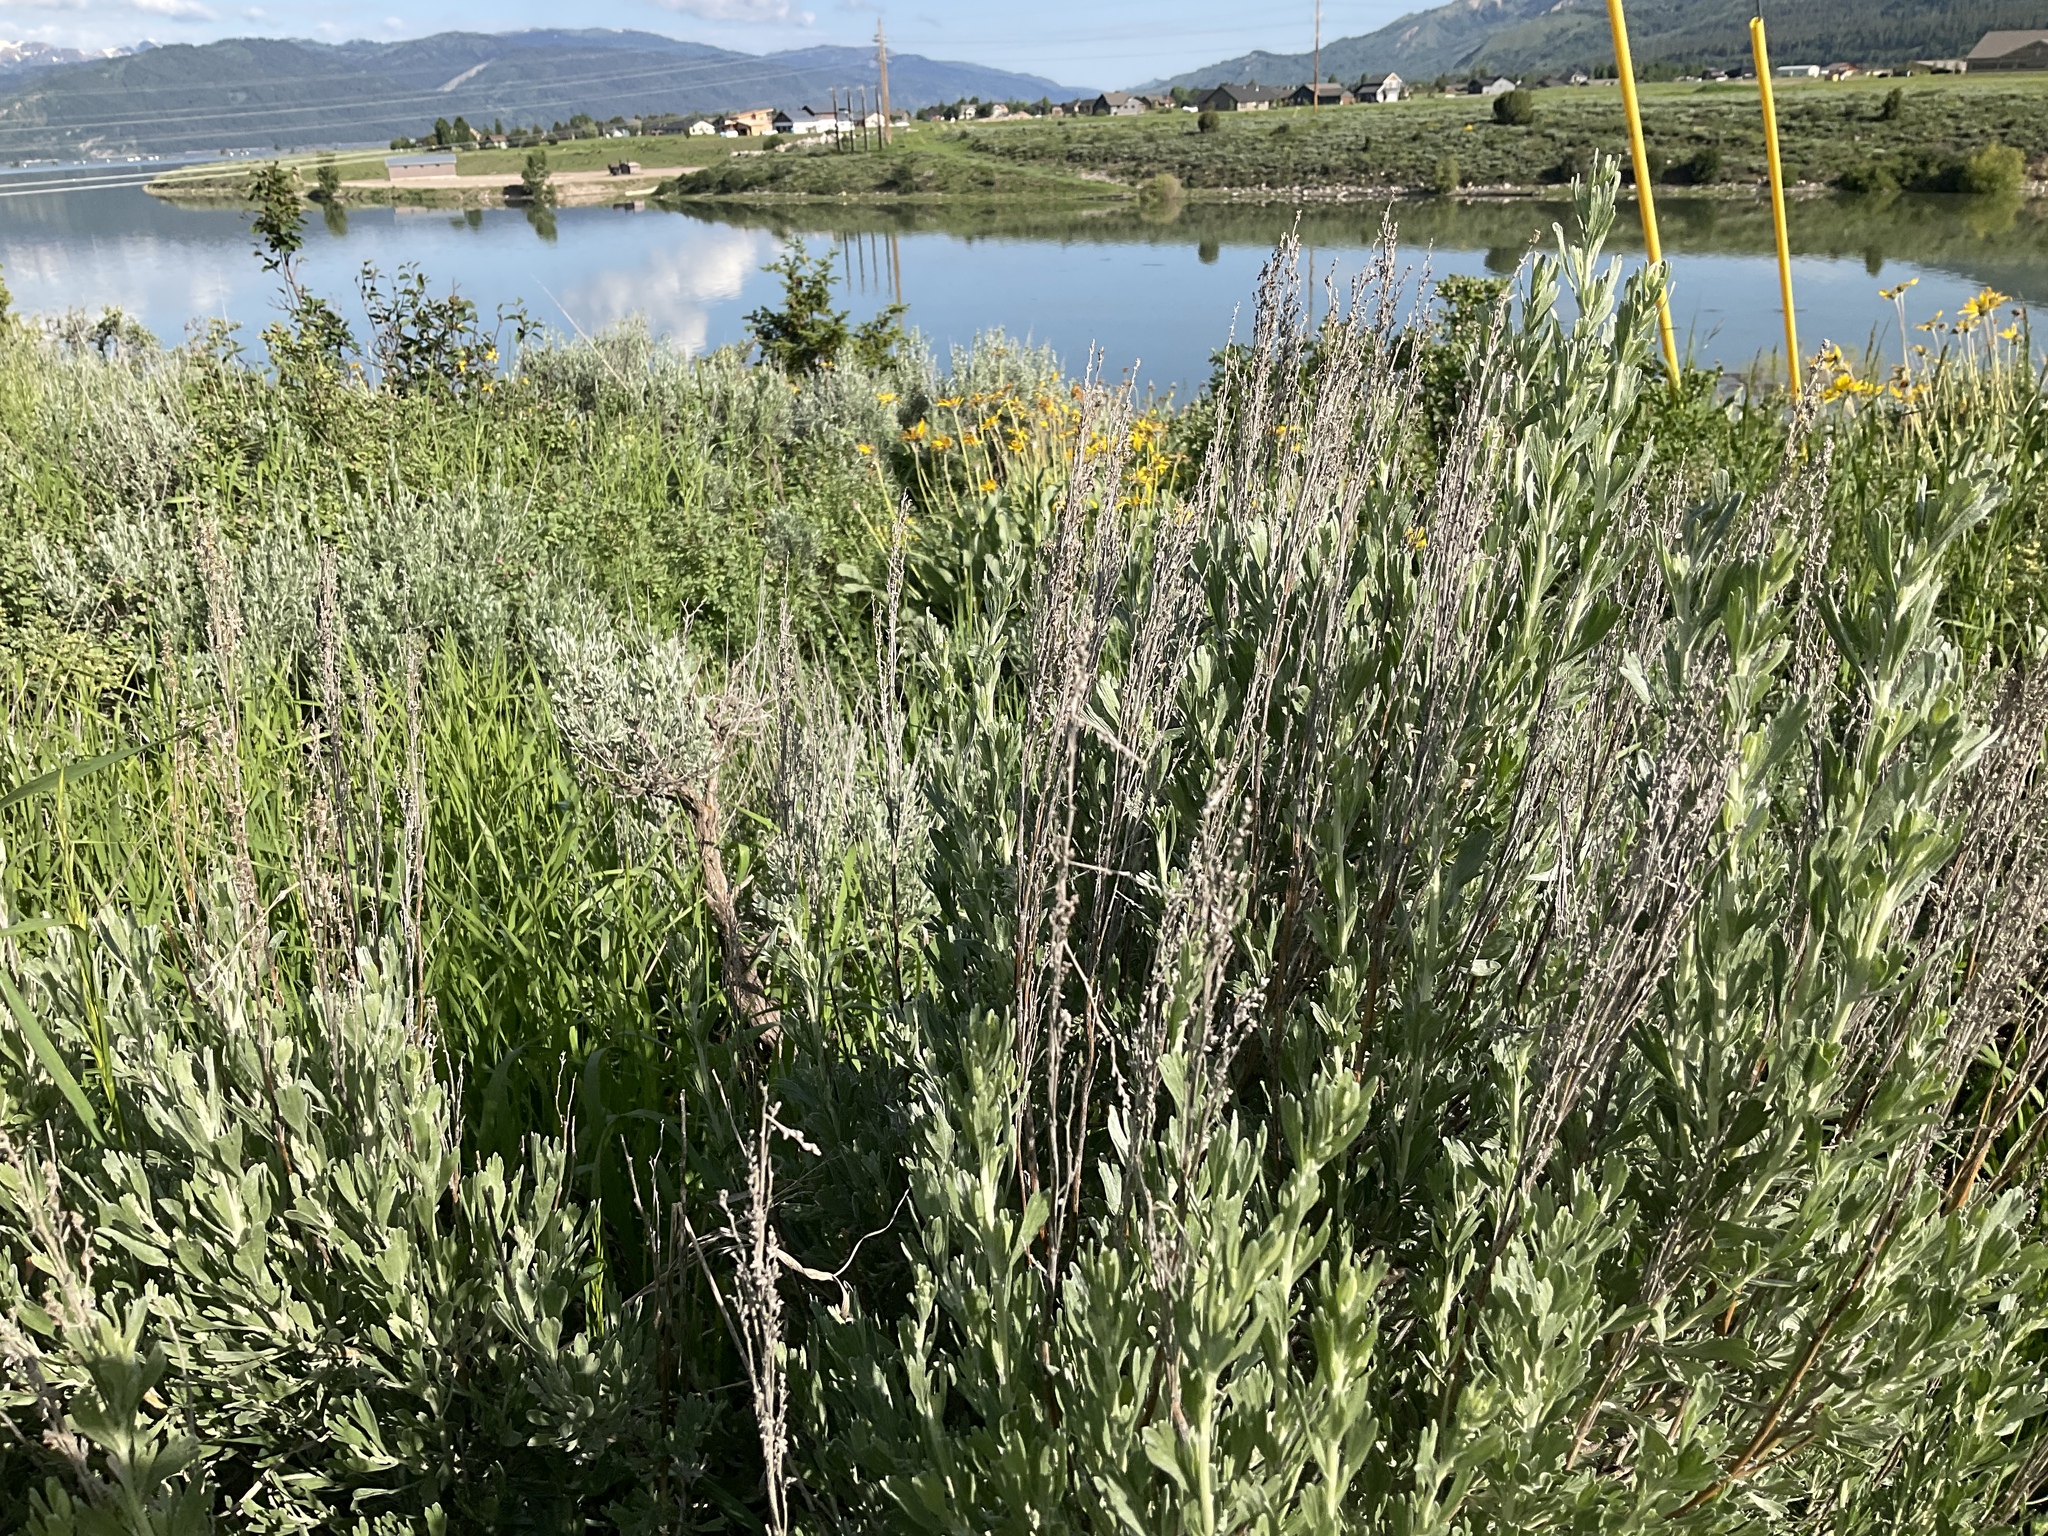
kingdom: Plantae
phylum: Tracheophyta
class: Magnoliopsida
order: Asterales
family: Asteraceae
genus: Artemisia
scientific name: Artemisia tridentata
